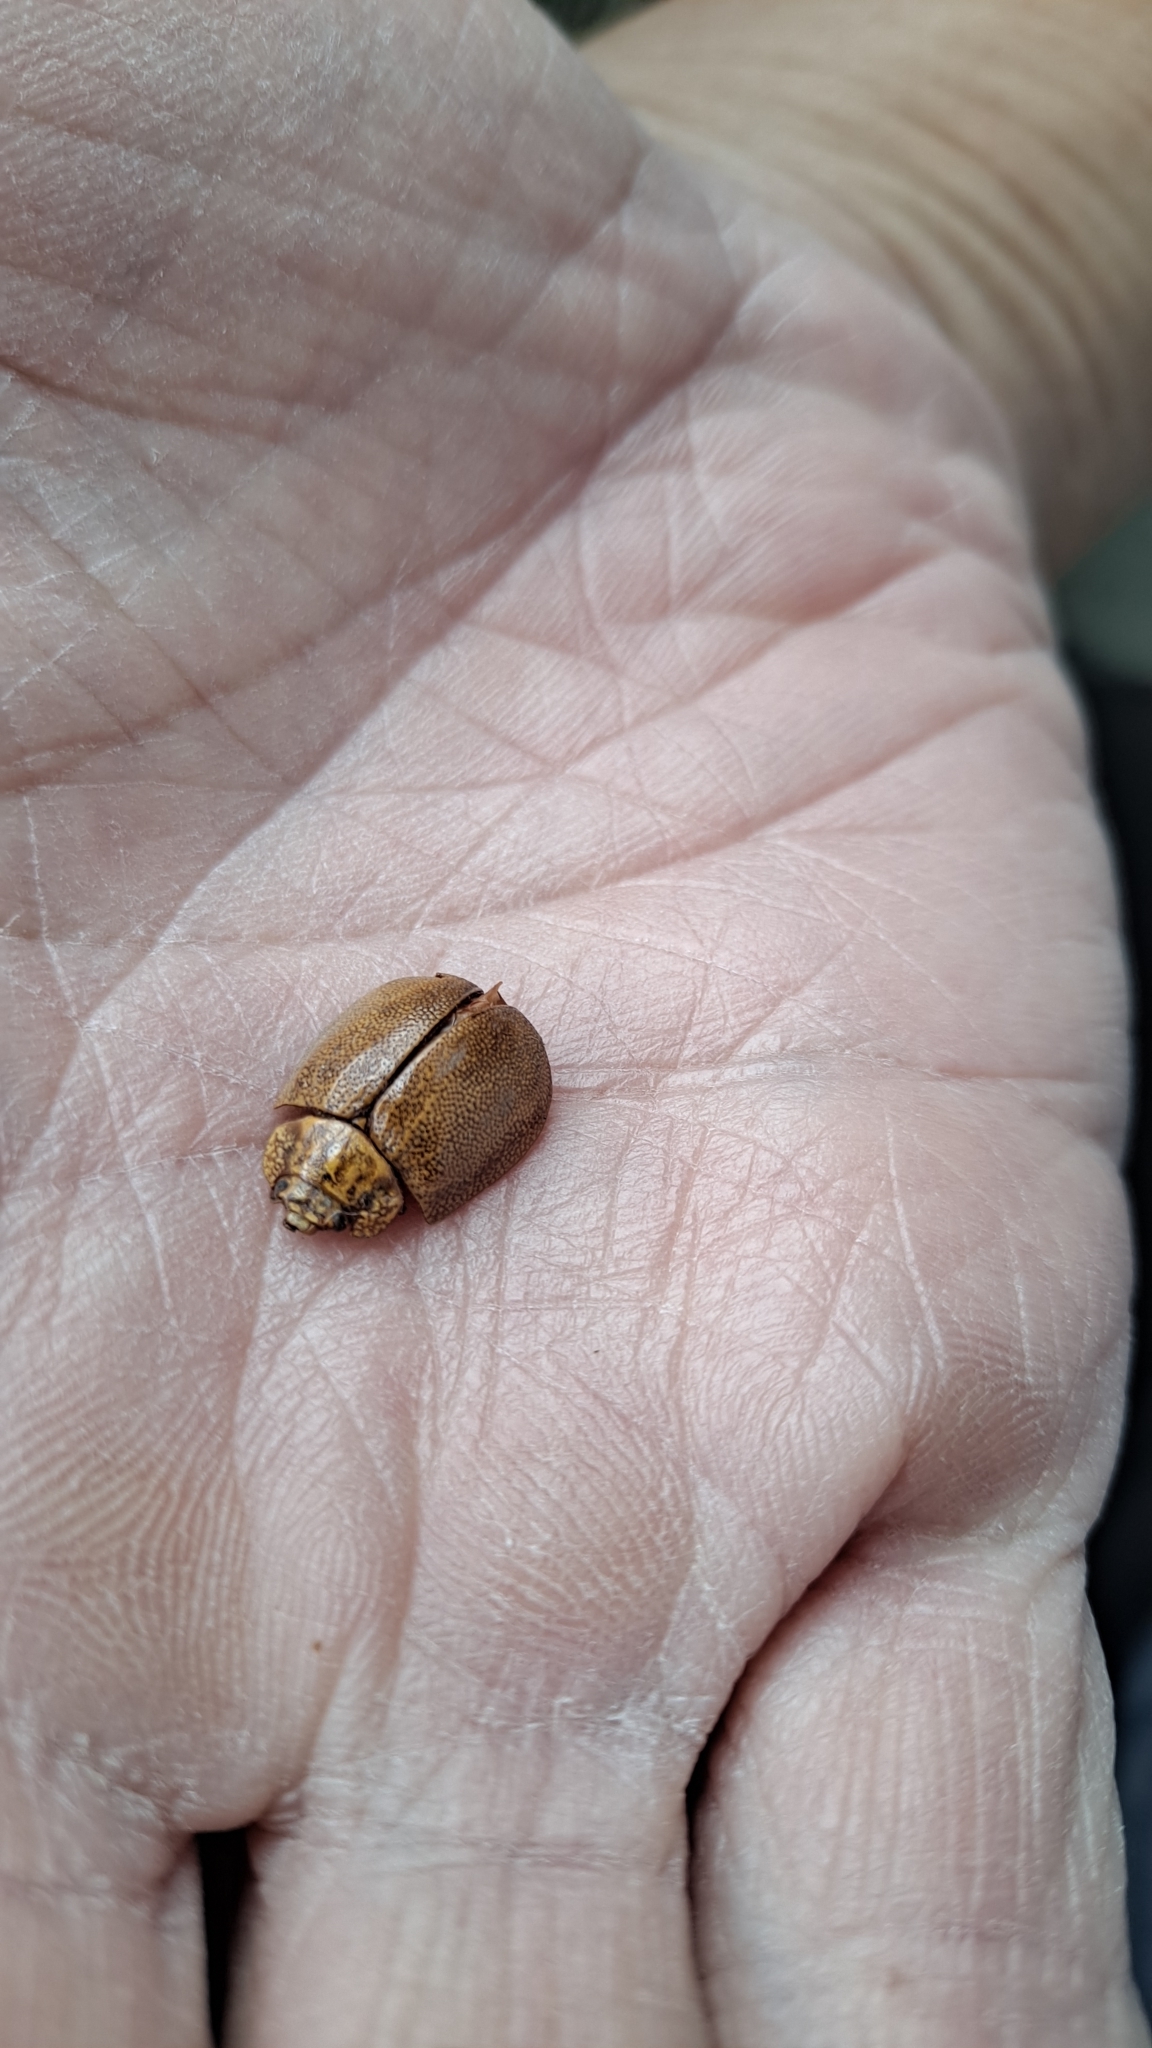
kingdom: Animalia
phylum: Arthropoda
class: Insecta
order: Coleoptera
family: Chrysomelidae
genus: Paropsis
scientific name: Paropsis
